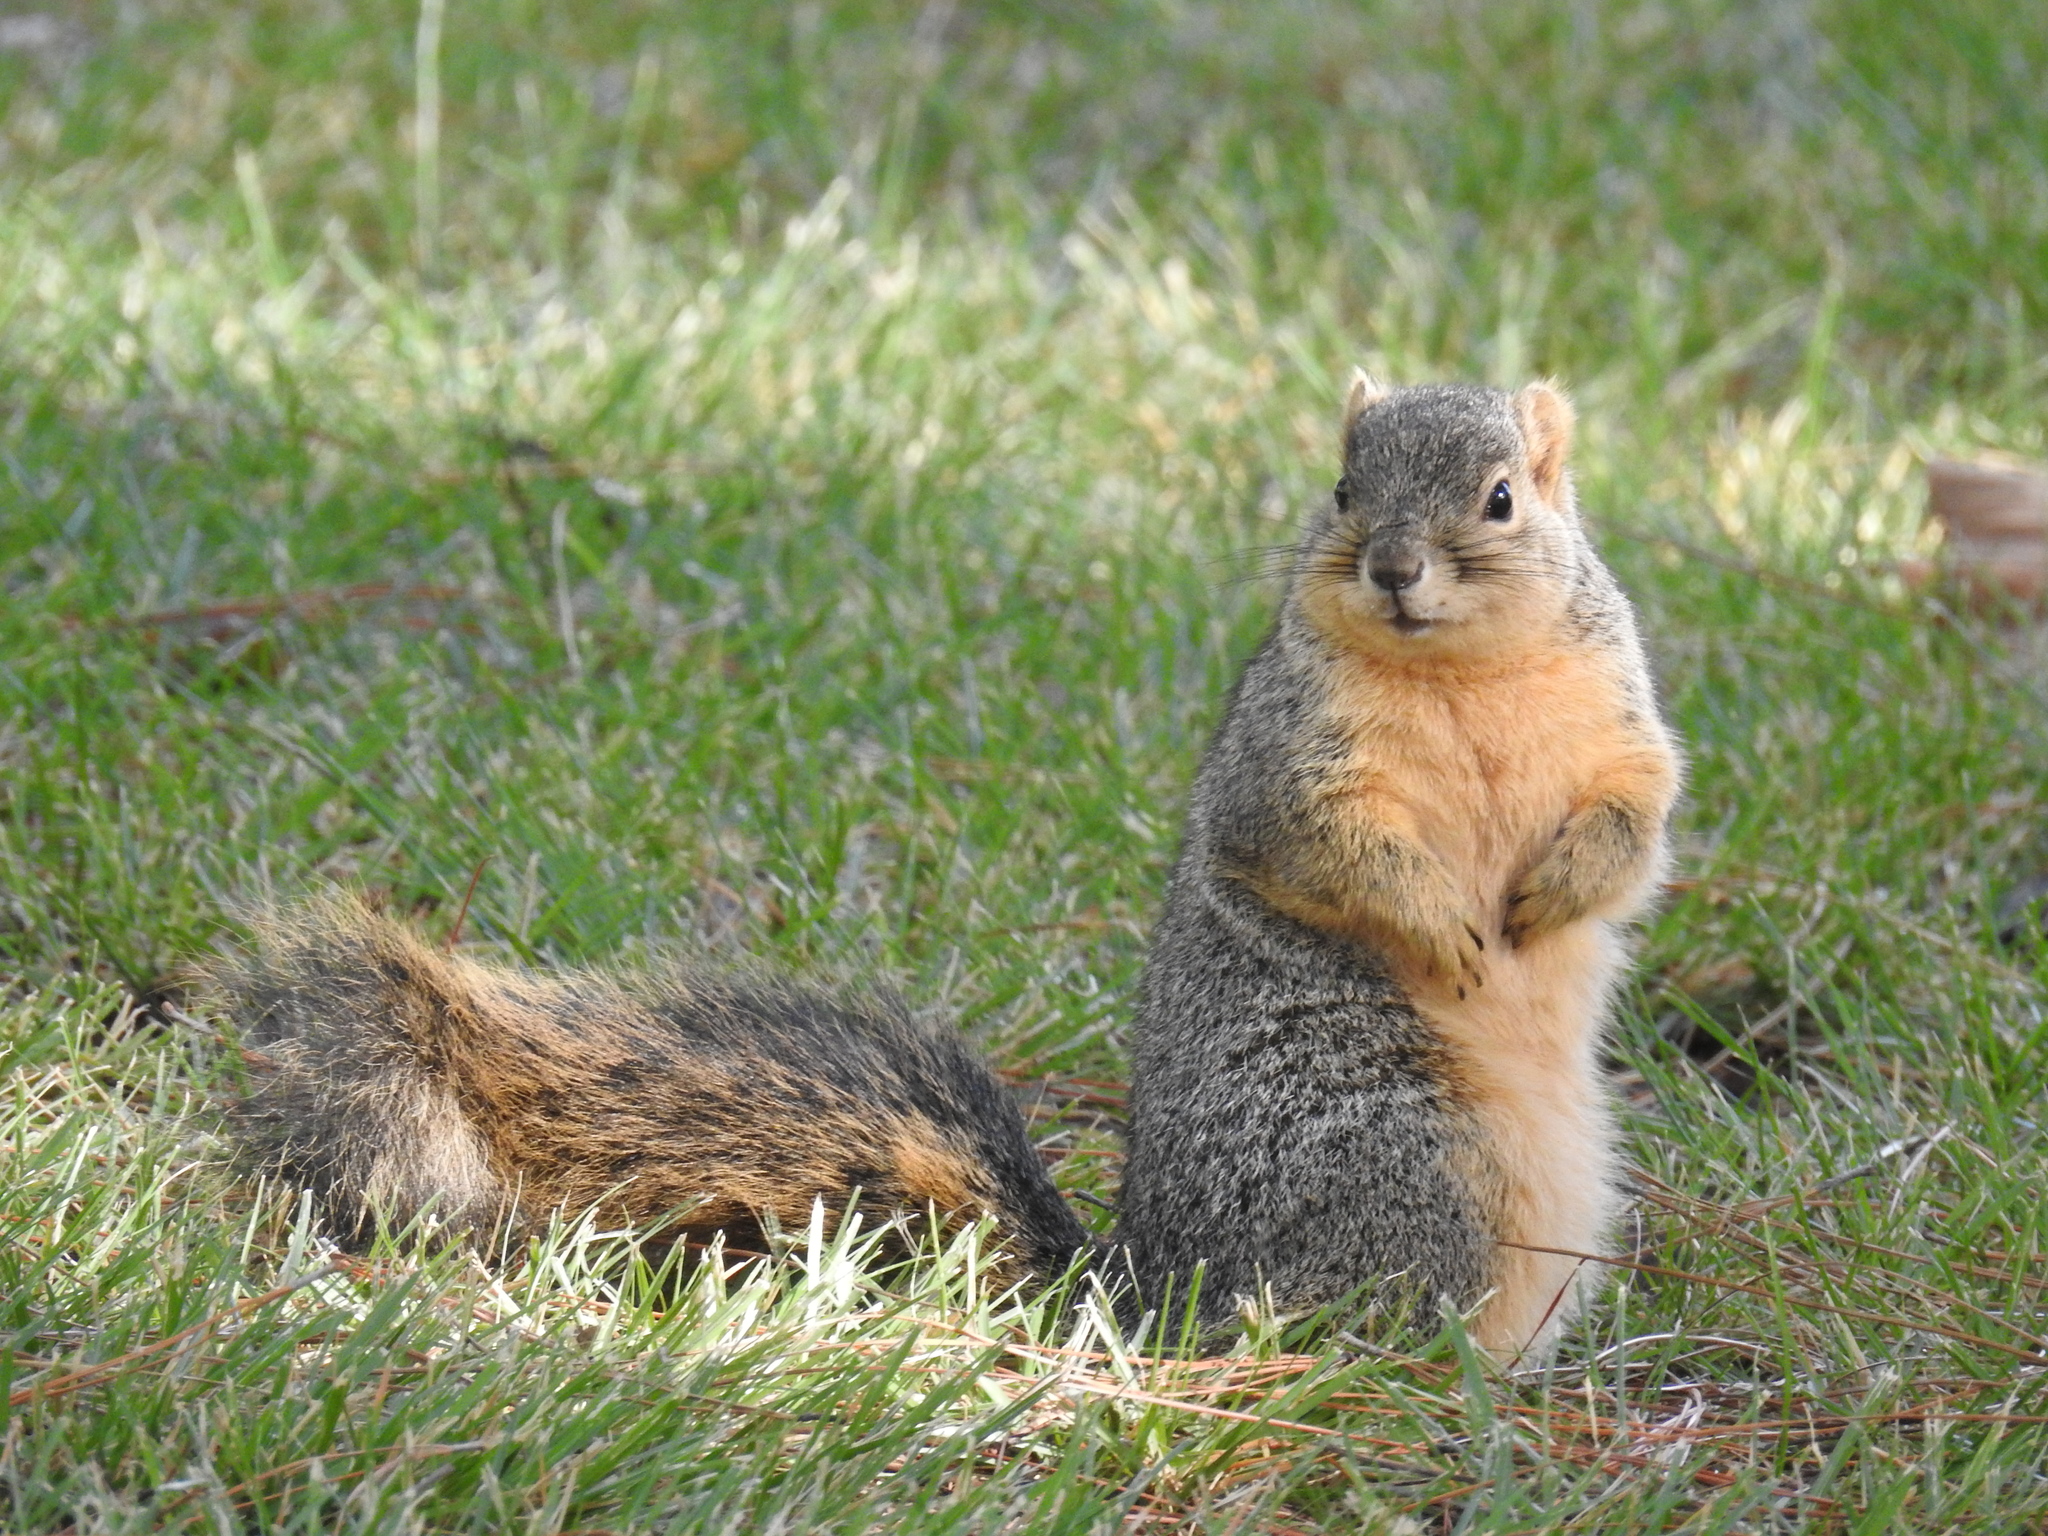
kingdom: Animalia
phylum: Chordata
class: Mammalia
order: Rodentia
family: Sciuridae
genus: Sciurus
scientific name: Sciurus niger
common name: Fox squirrel
